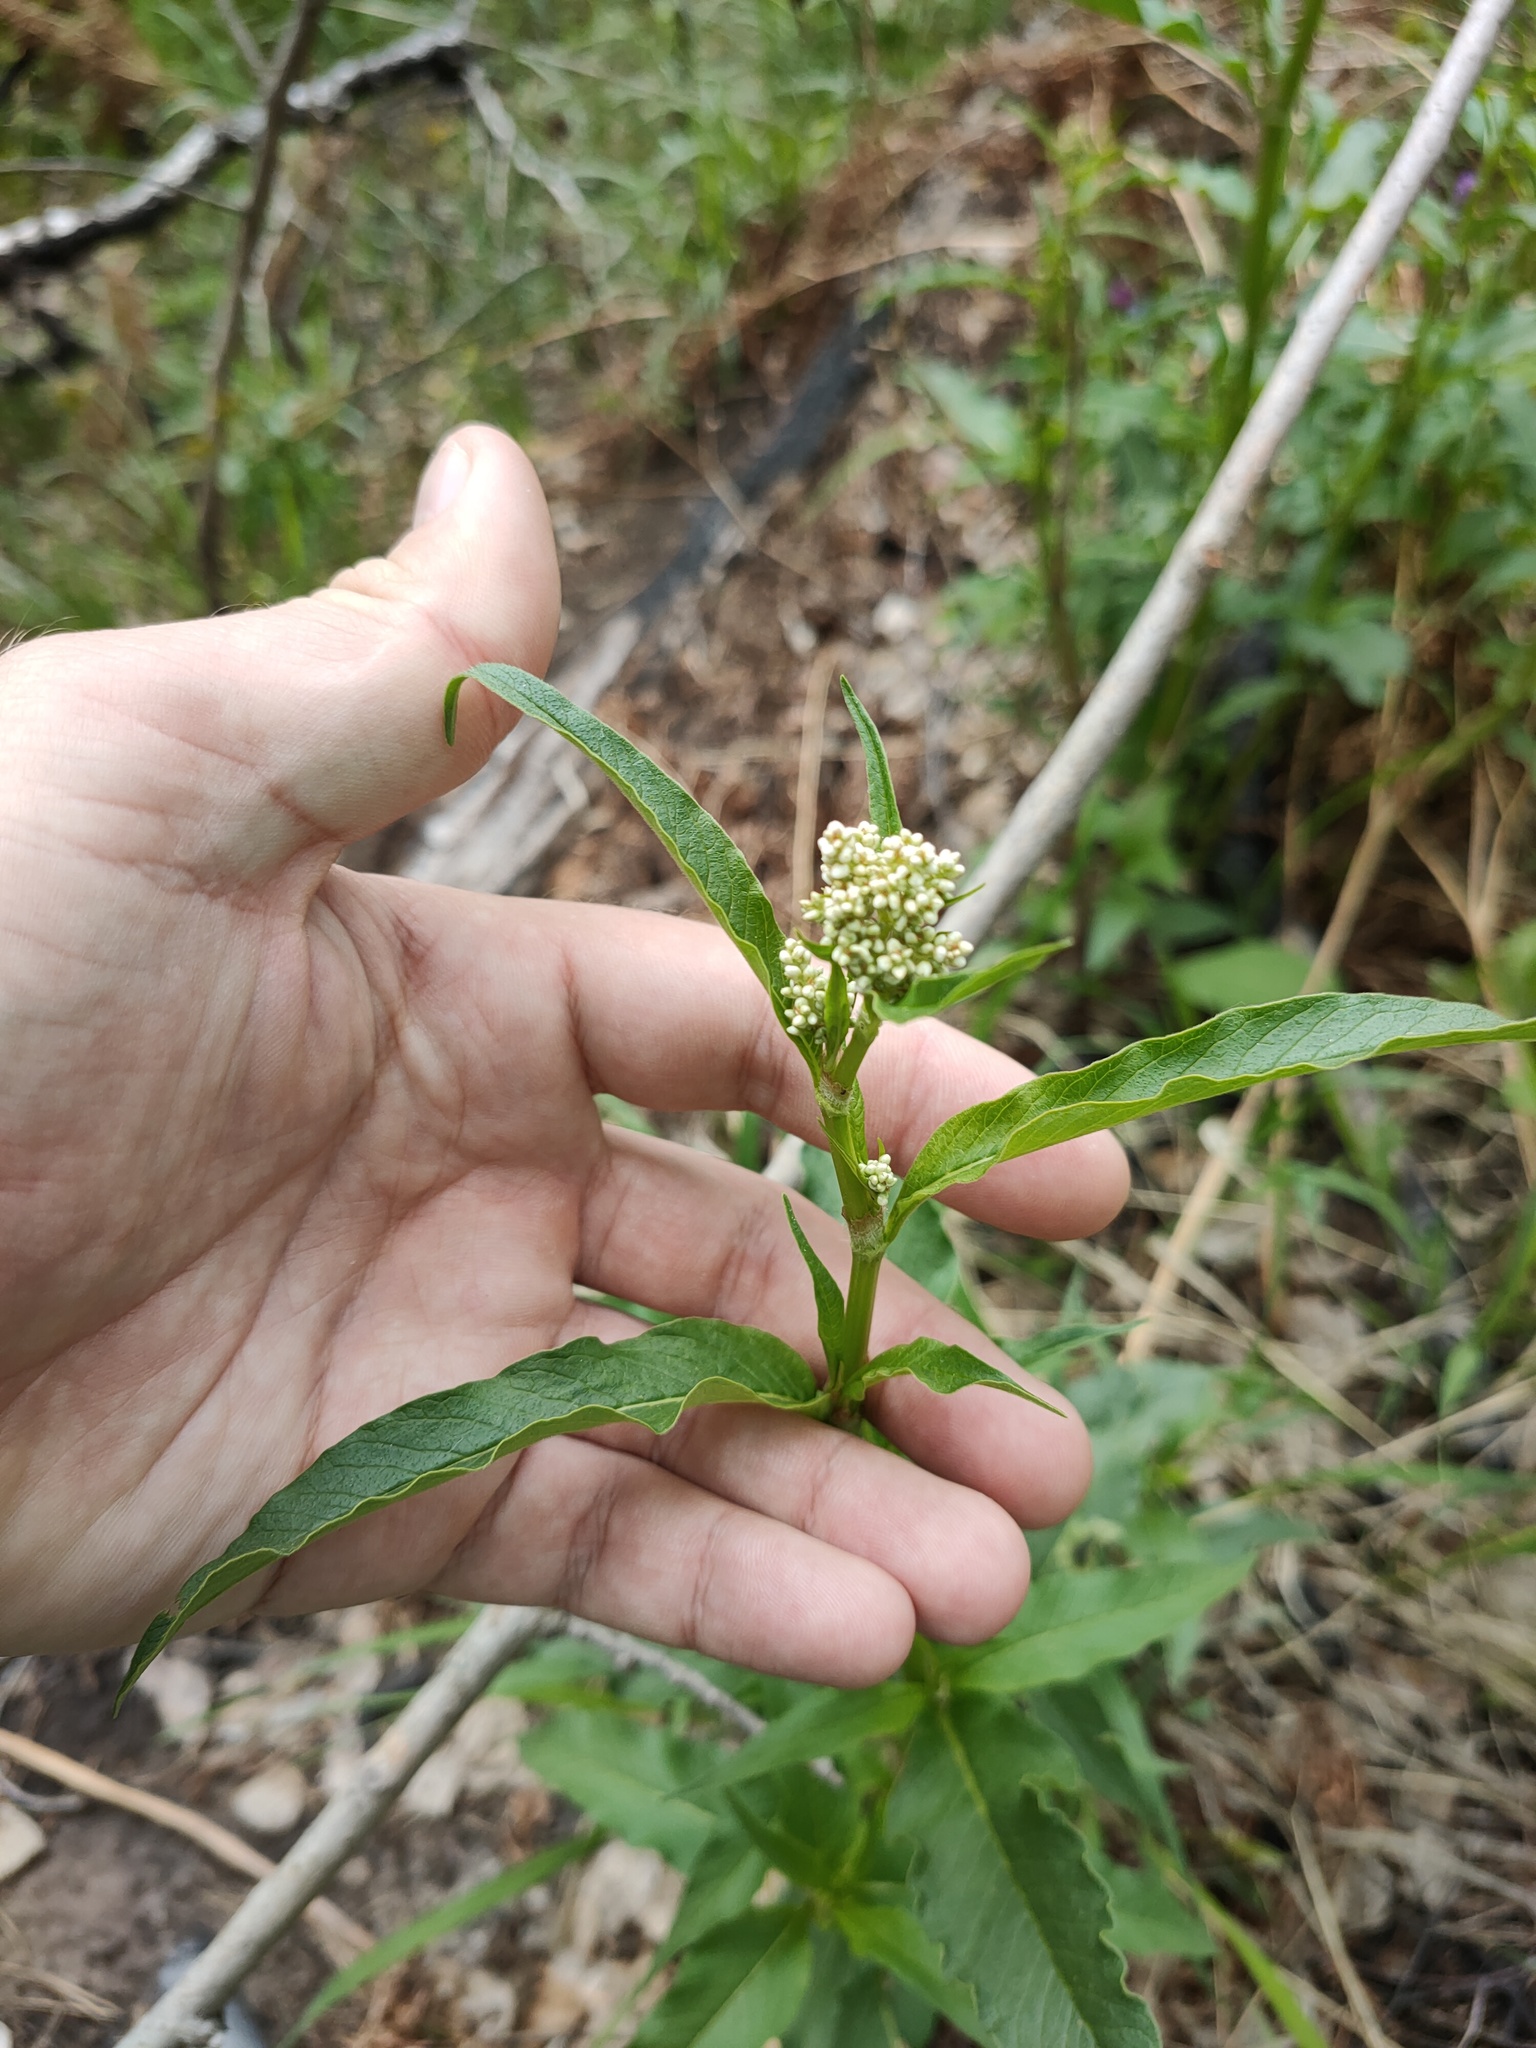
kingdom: Plantae
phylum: Tracheophyta
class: Magnoliopsida
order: Caryophyllales
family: Polygonaceae
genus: Koenigia
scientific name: Koenigia alpina
